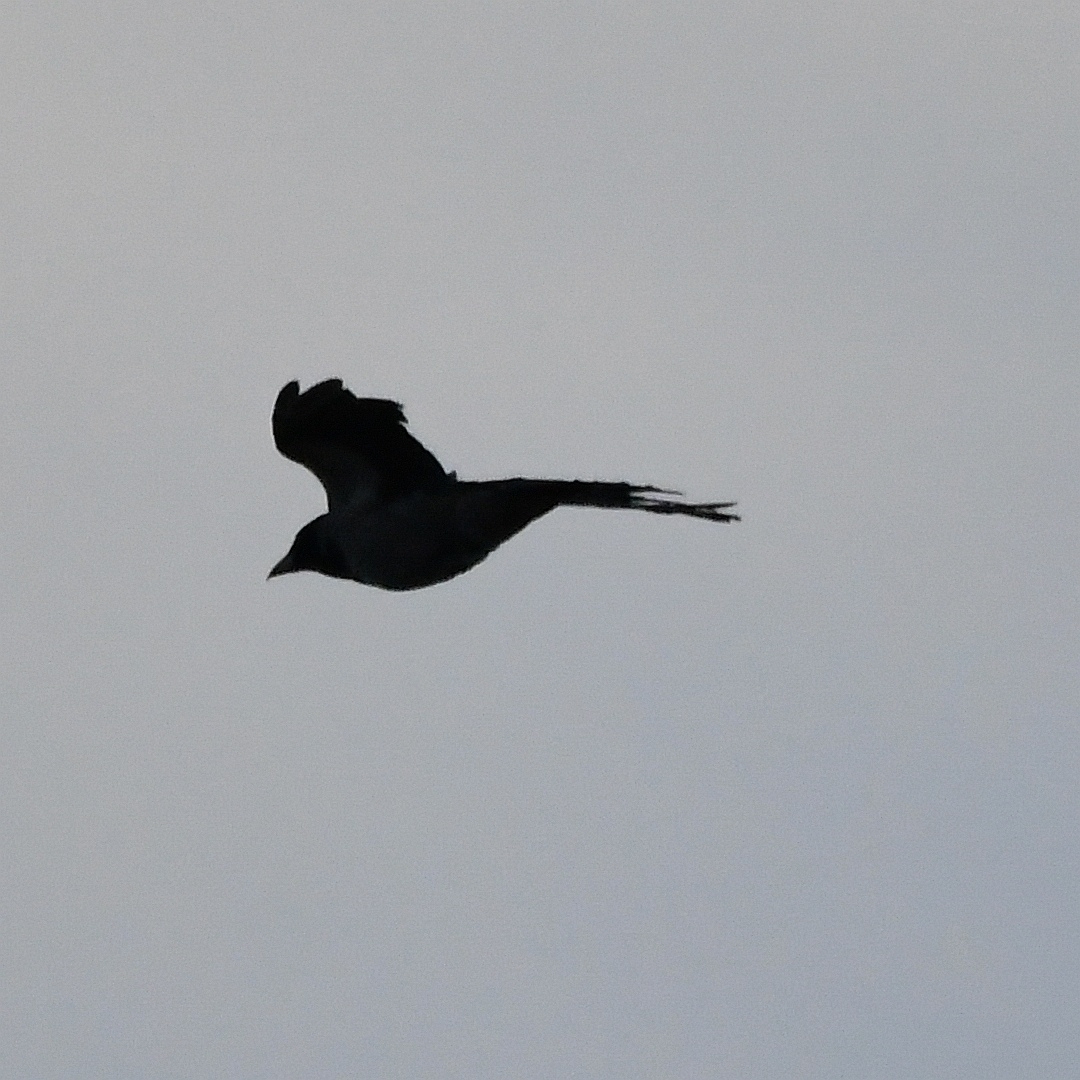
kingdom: Animalia
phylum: Chordata
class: Aves
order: Passeriformes
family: Corvidae
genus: Corvus
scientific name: Corvus cornix
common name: Hooded crow
